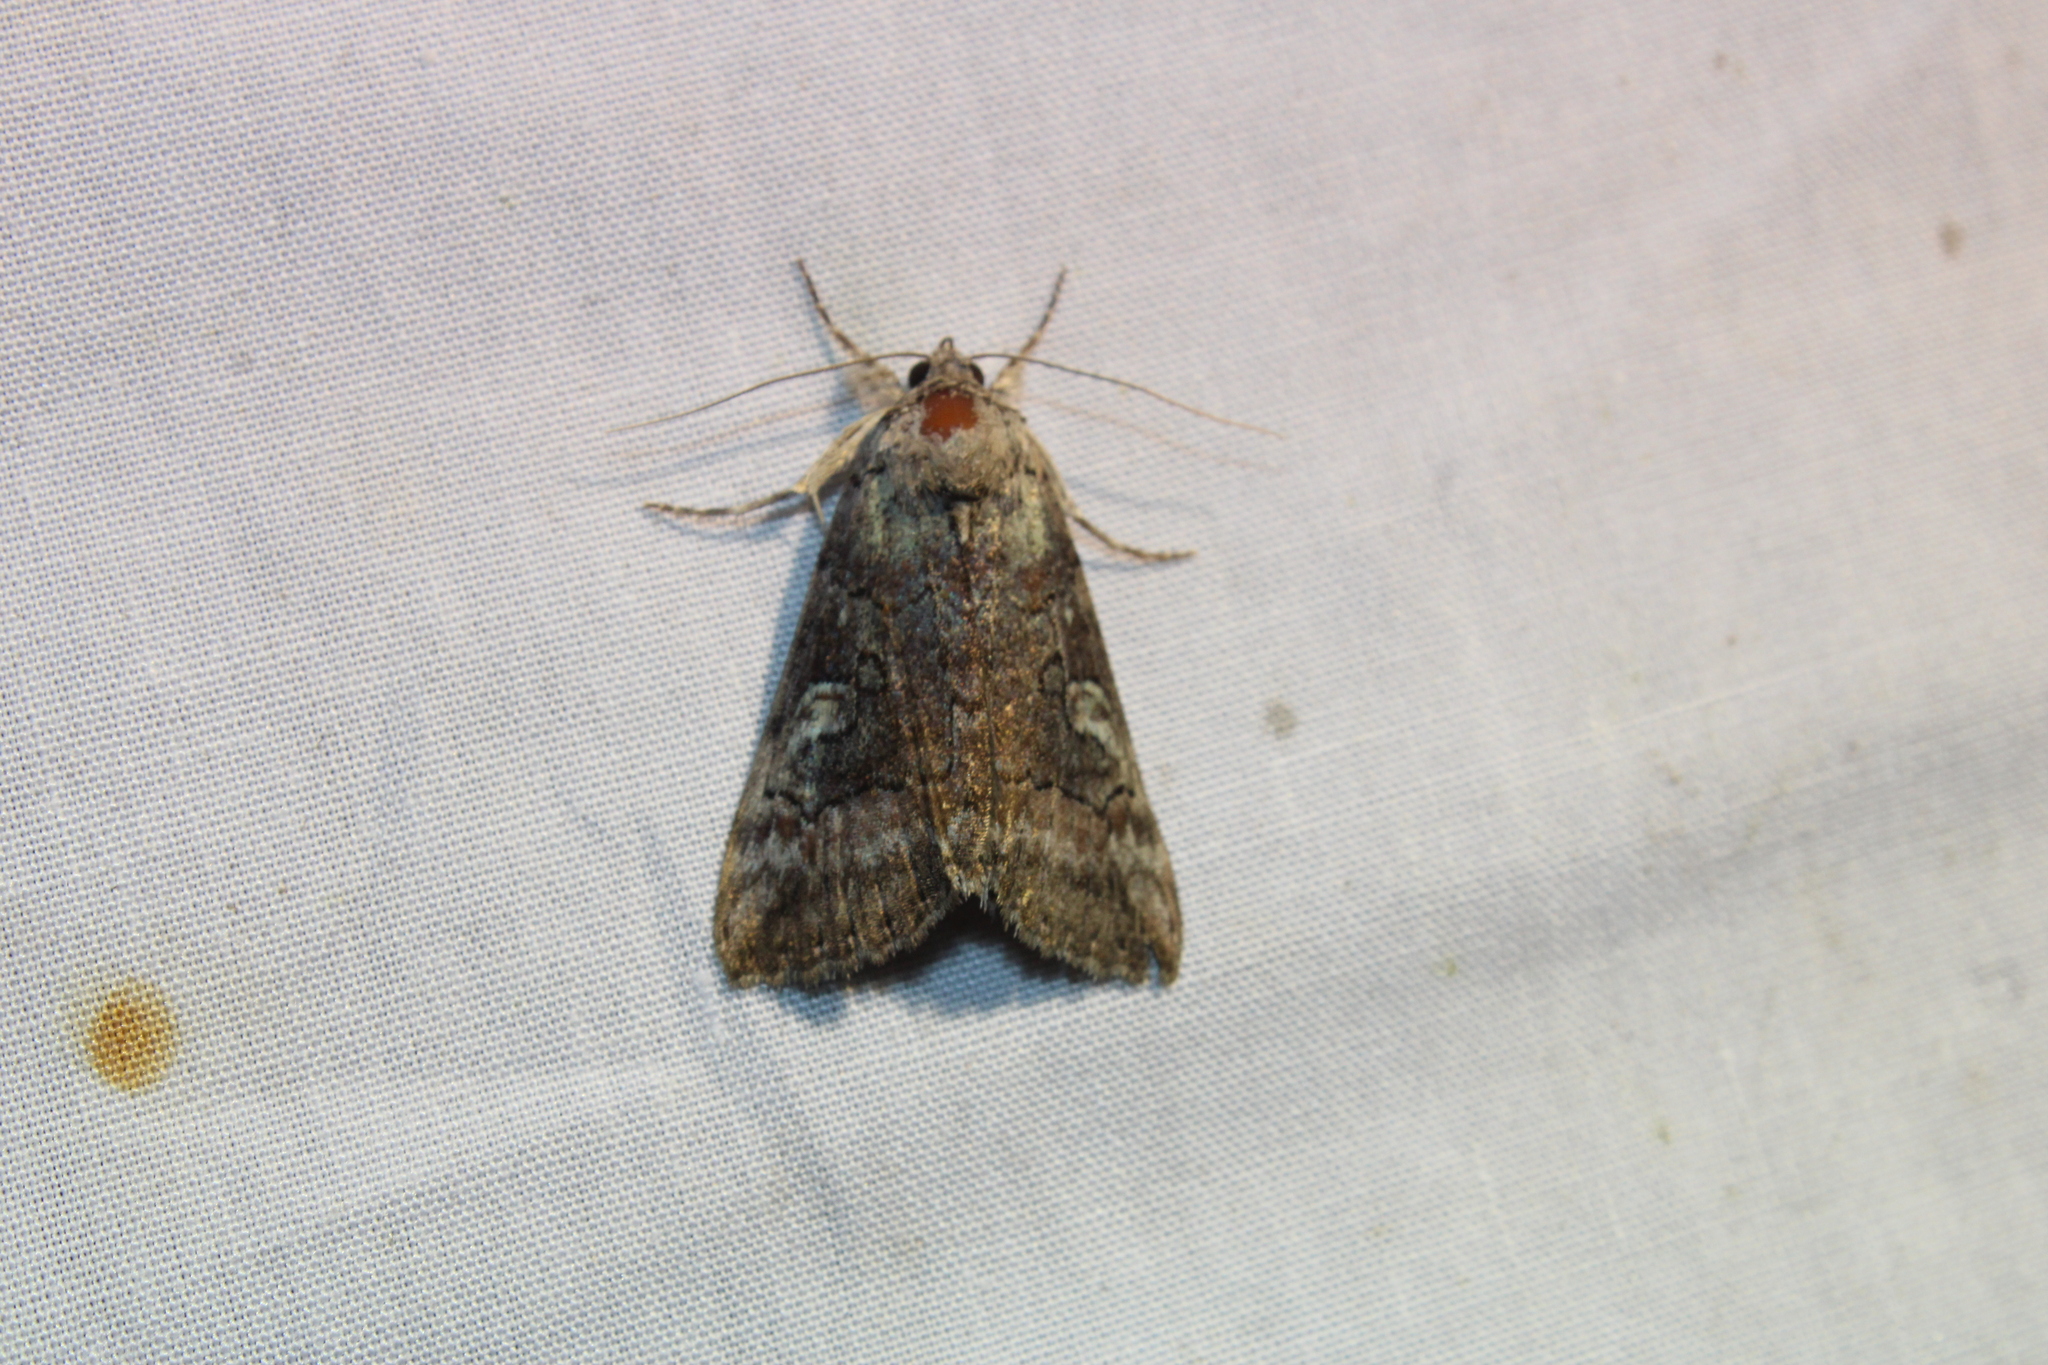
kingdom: Animalia
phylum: Arthropoda
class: Insecta
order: Lepidoptera
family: Erebidae
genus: Catocala
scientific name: Catocala similis
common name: Similar underwing
